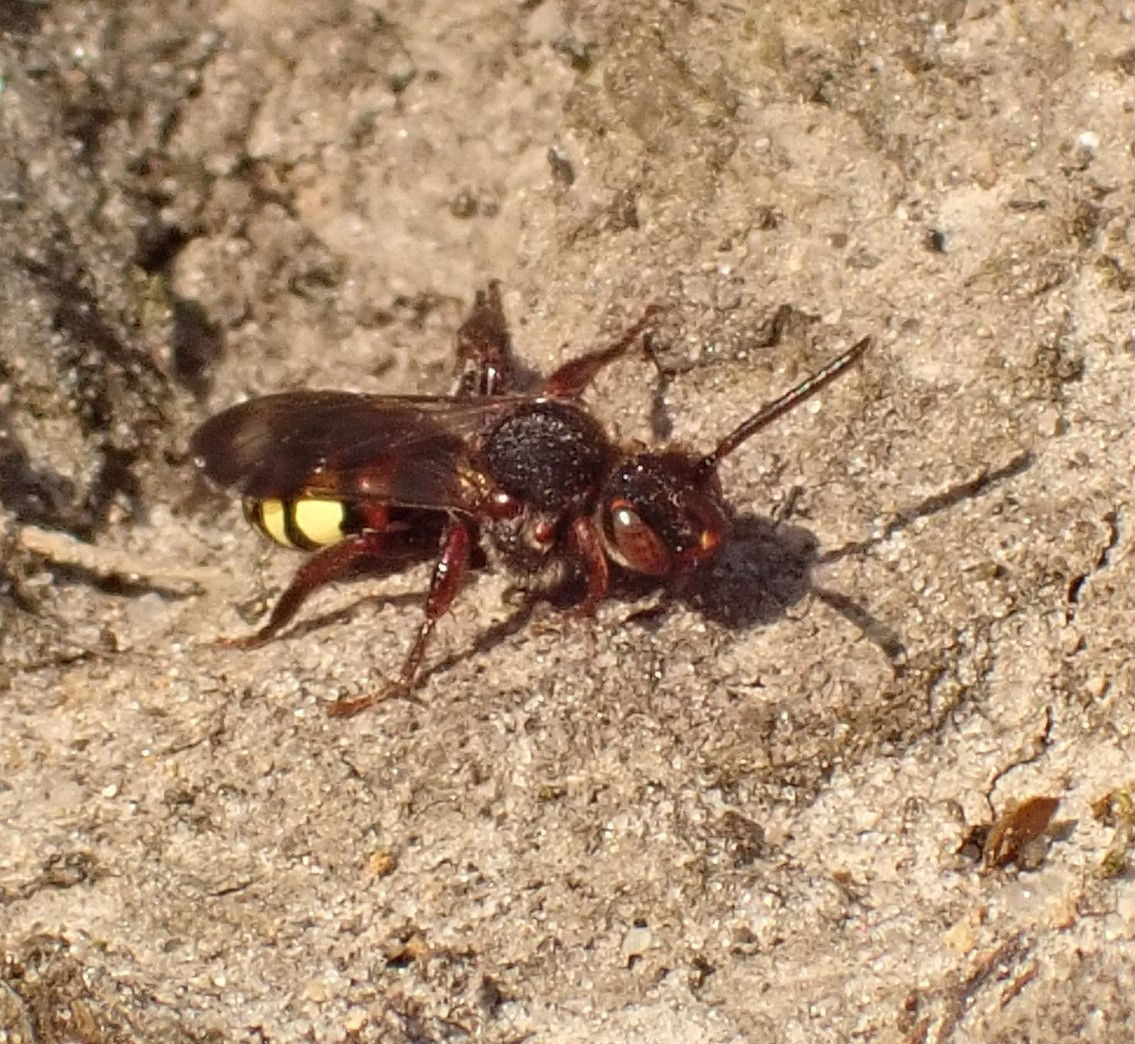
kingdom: Animalia
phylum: Arthropoda
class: Insecta
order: Hymenoptera
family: Apidae
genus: Nomada
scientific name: Nomada leucophthalma
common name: Early nomad bee
